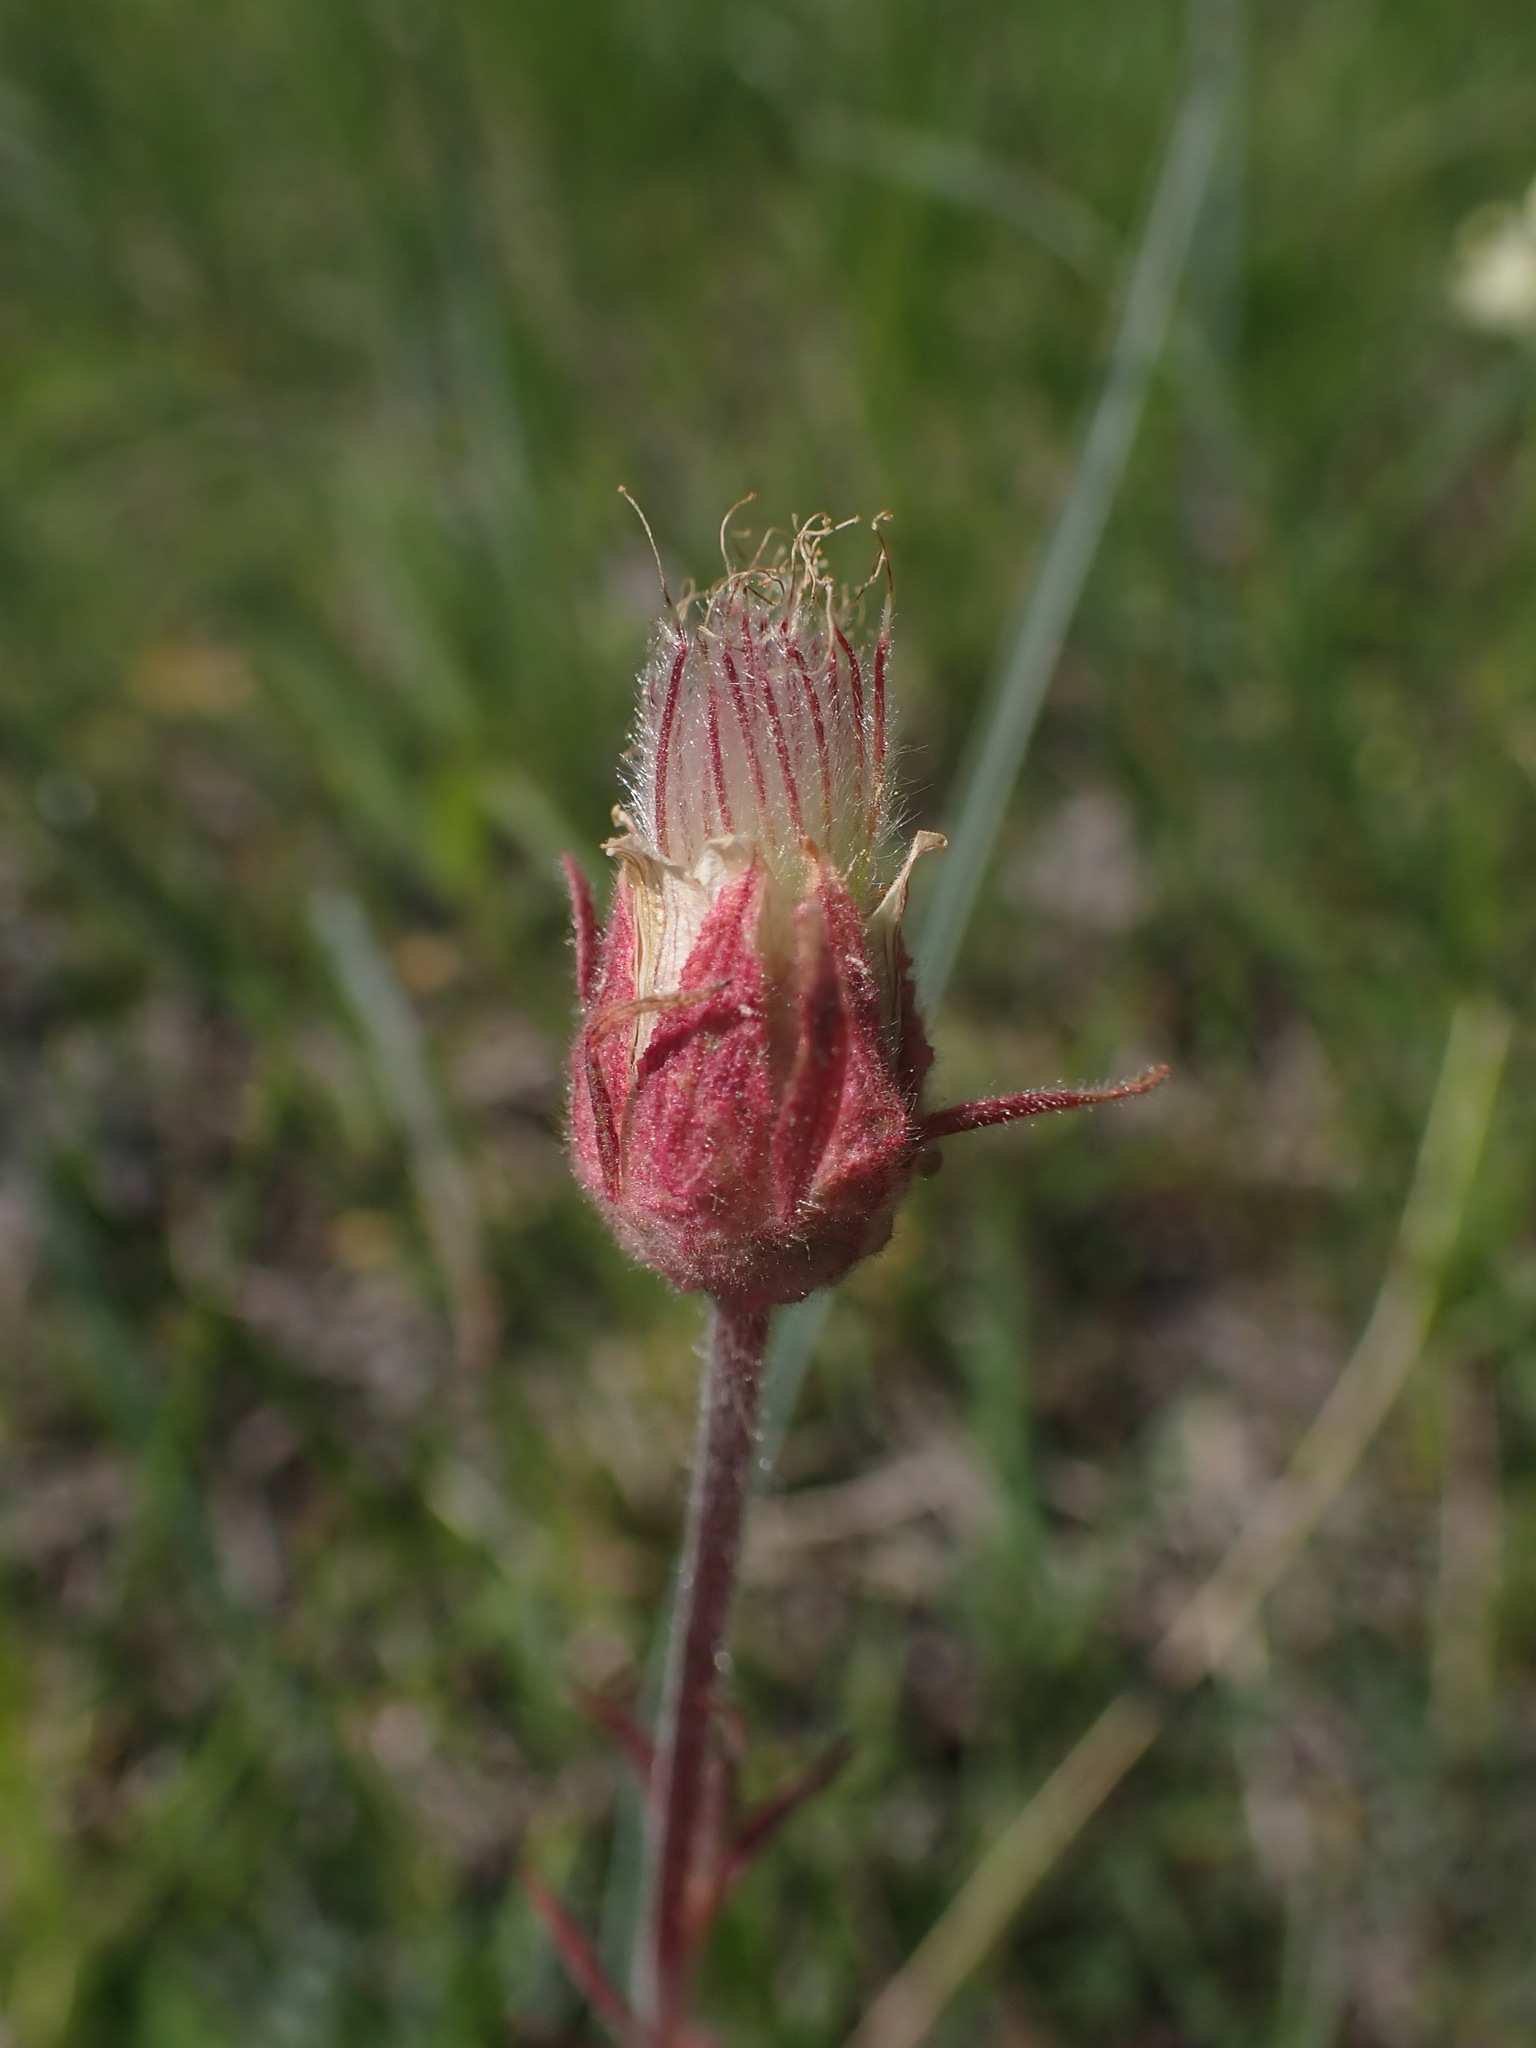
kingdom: Plantae
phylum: Tracheophyta
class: Magnoliopsida
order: Rosales
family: Rosaceae
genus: Geum
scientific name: Geum triflorum
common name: Old man's whiskers
